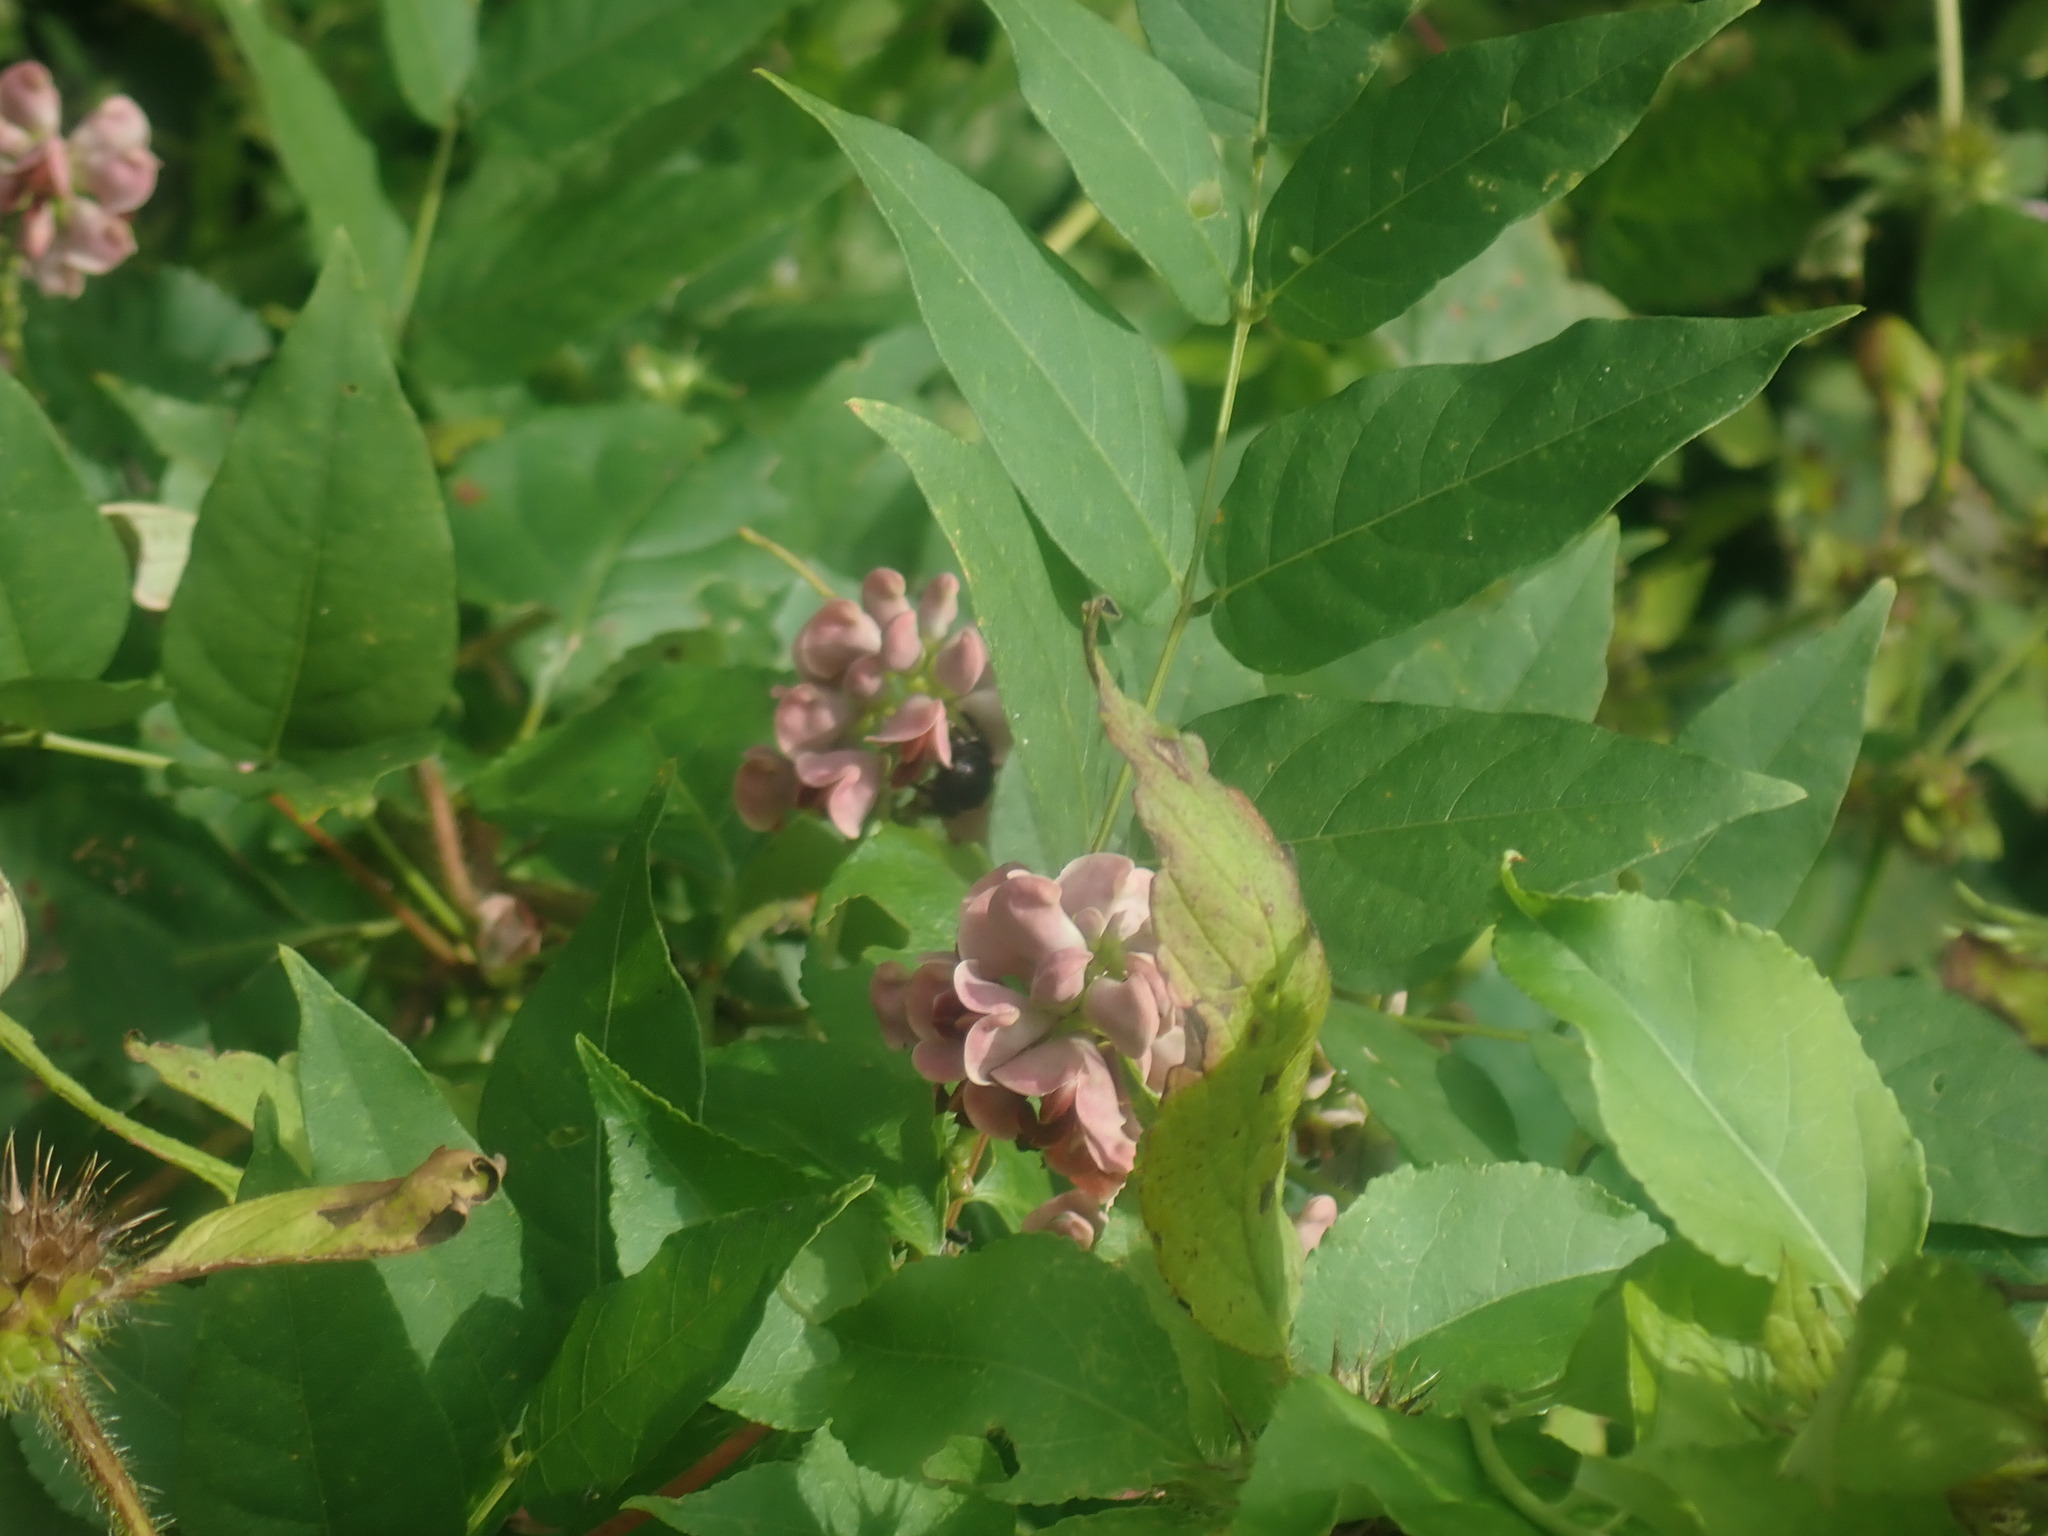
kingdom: Plantae
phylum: Tracheophyta
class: Magnoliopsida
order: Fabales
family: Fabaceae
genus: Apios
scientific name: Apios americana
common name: American potato-bean
